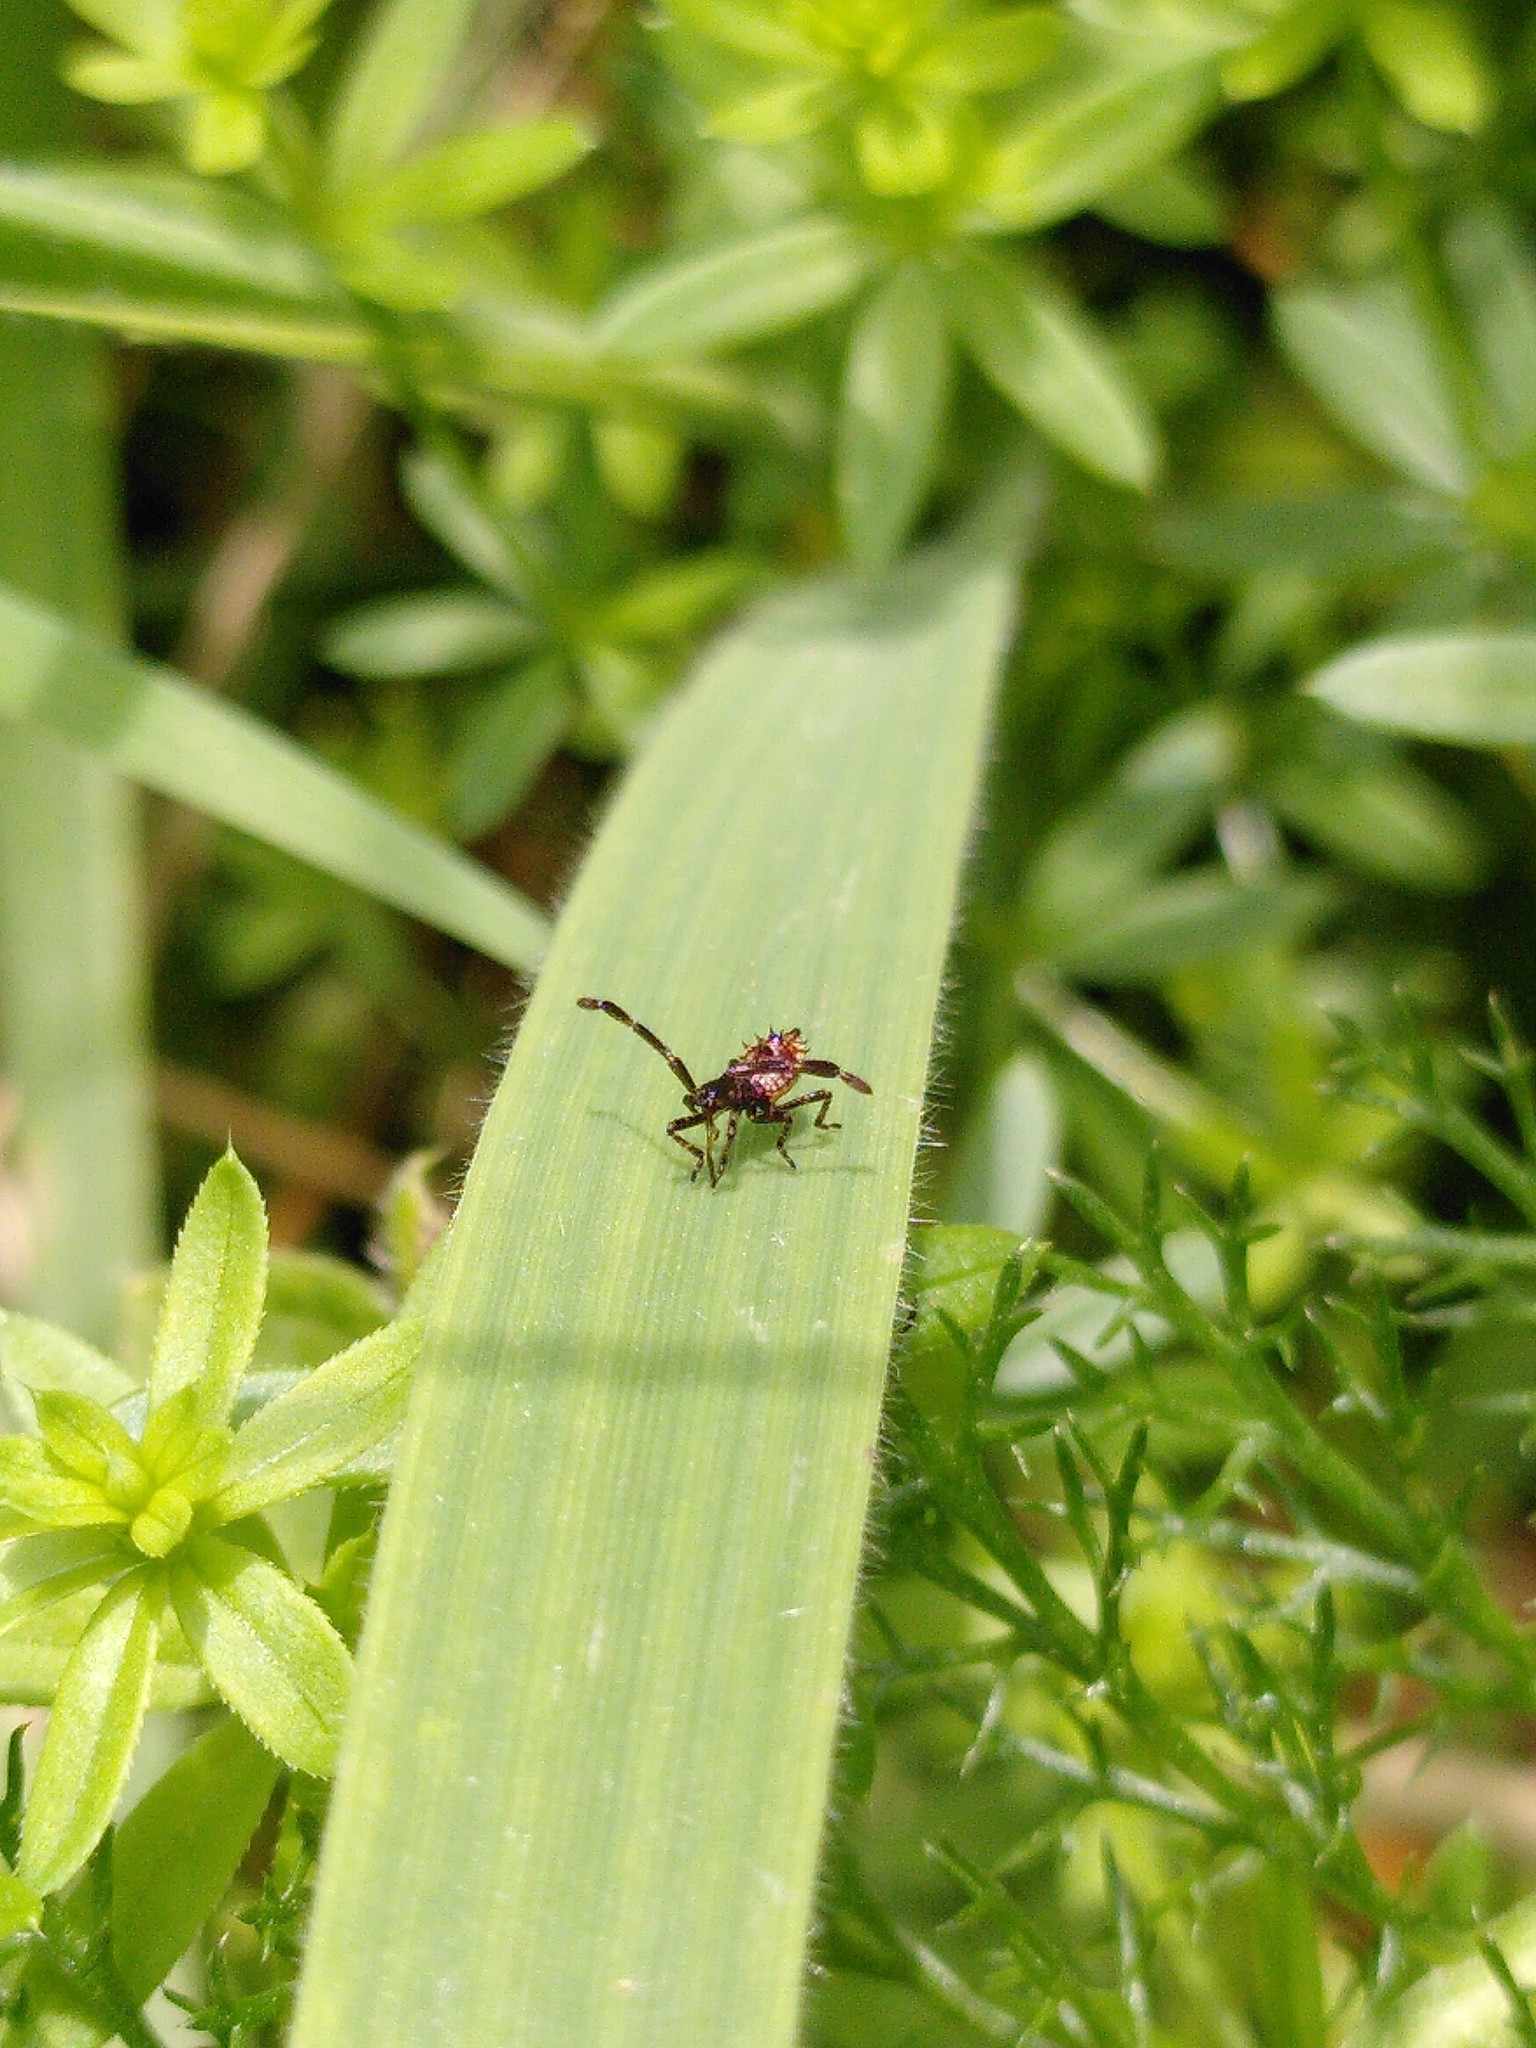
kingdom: Animalia
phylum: Arthropoda
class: Insecta
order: Hemiptera
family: Coreidae
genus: Coreus
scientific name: Coreus marginatus
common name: Dock bug
